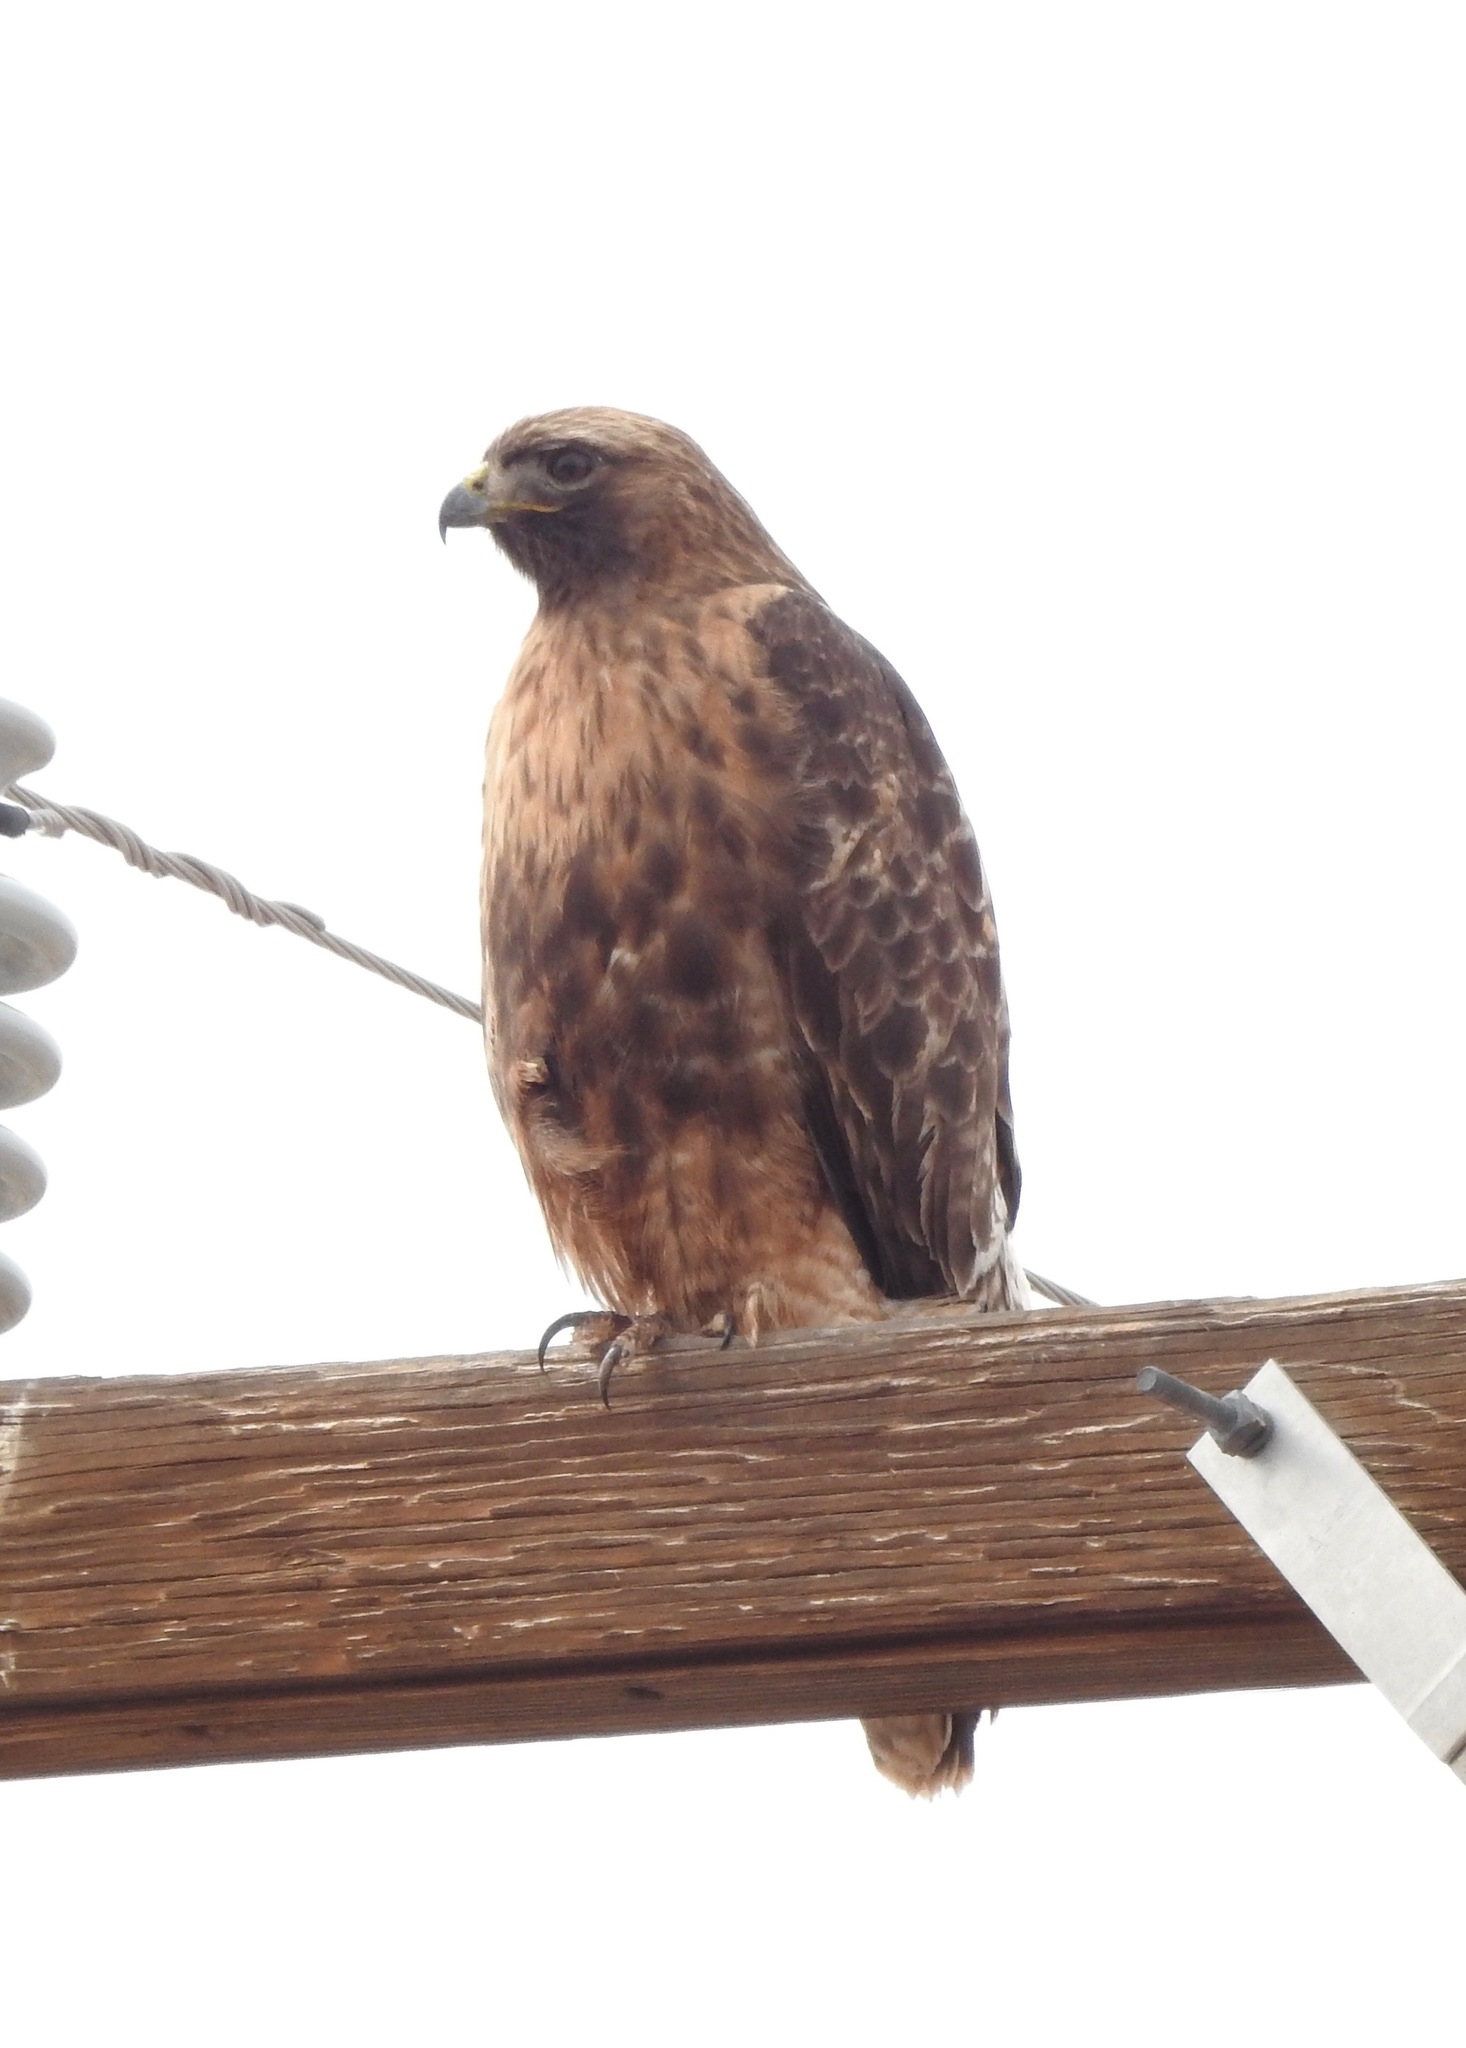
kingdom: Animalia
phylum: Chordata
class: Aves
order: Accipitriformes
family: Accipitridae
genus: Buteo
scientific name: Buteo jamaicensis
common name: Red-tailed hawk
